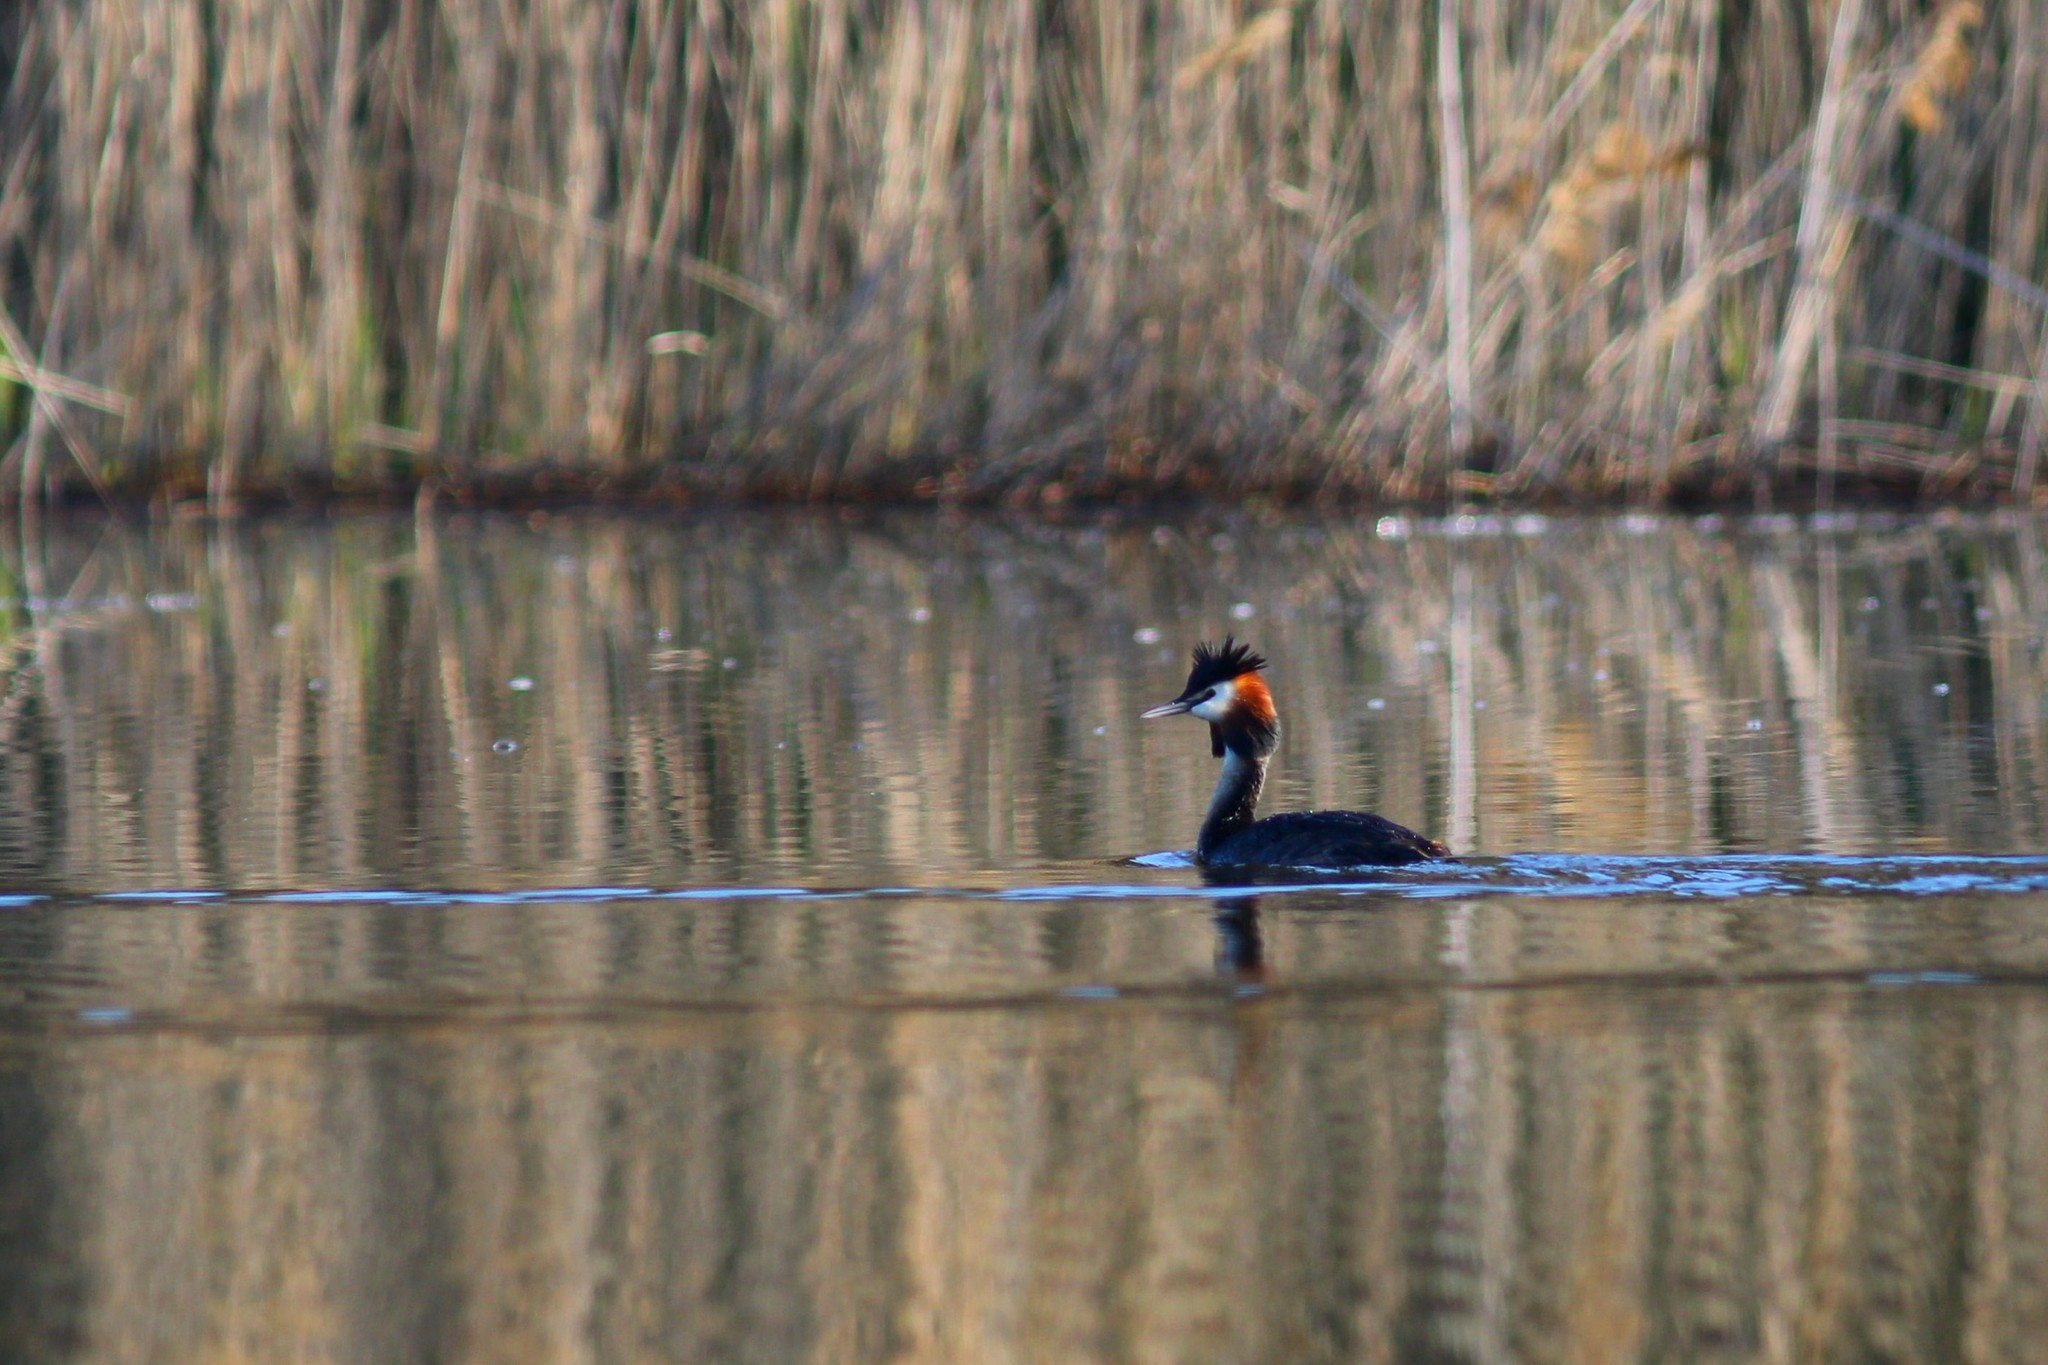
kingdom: Animalia
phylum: Chordata
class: Aves
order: Podicipediformes
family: Podicipedidae
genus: Podiceps
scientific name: Podiceps cristatus
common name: Great crested grebe
